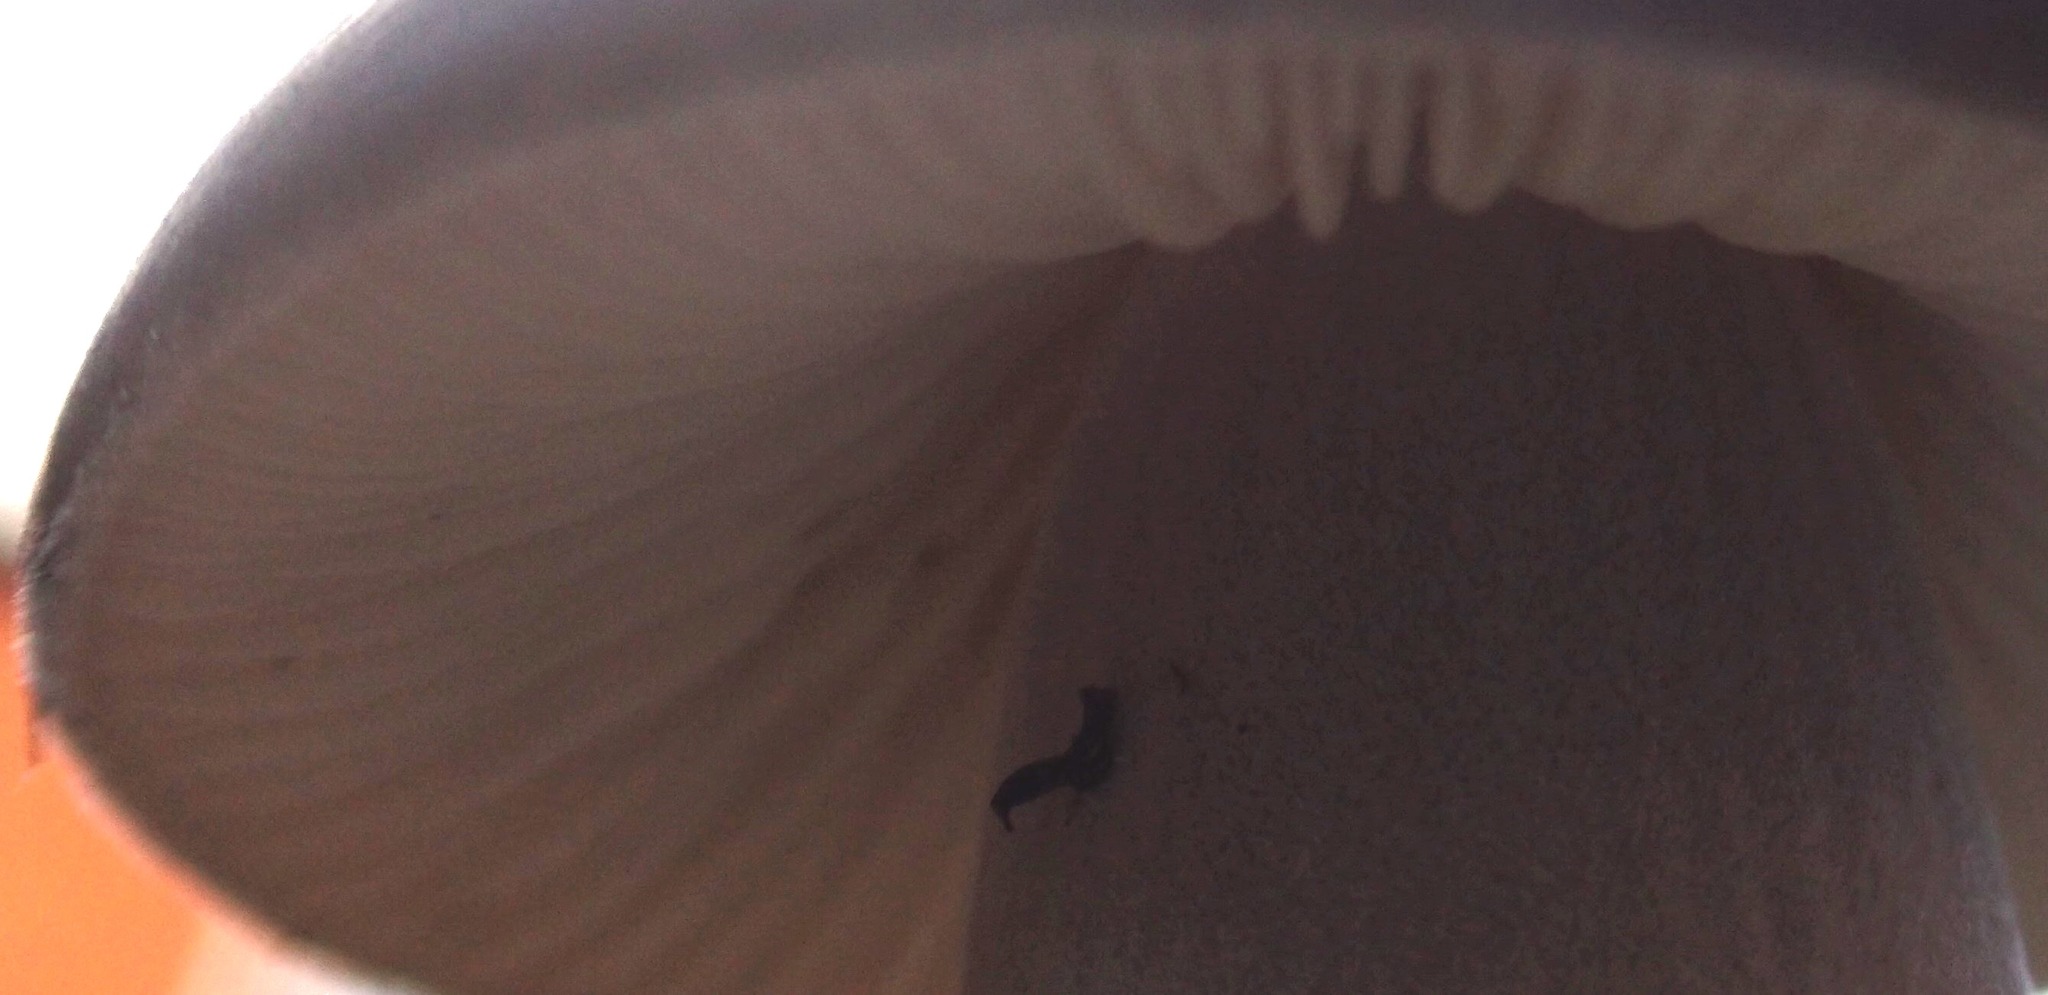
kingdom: Fungi
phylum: Basidiomycota
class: Agaricomycetes
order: Agaricales
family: Physalacriaceae
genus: Hymenopellis
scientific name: Hymenopellis gigaspora
